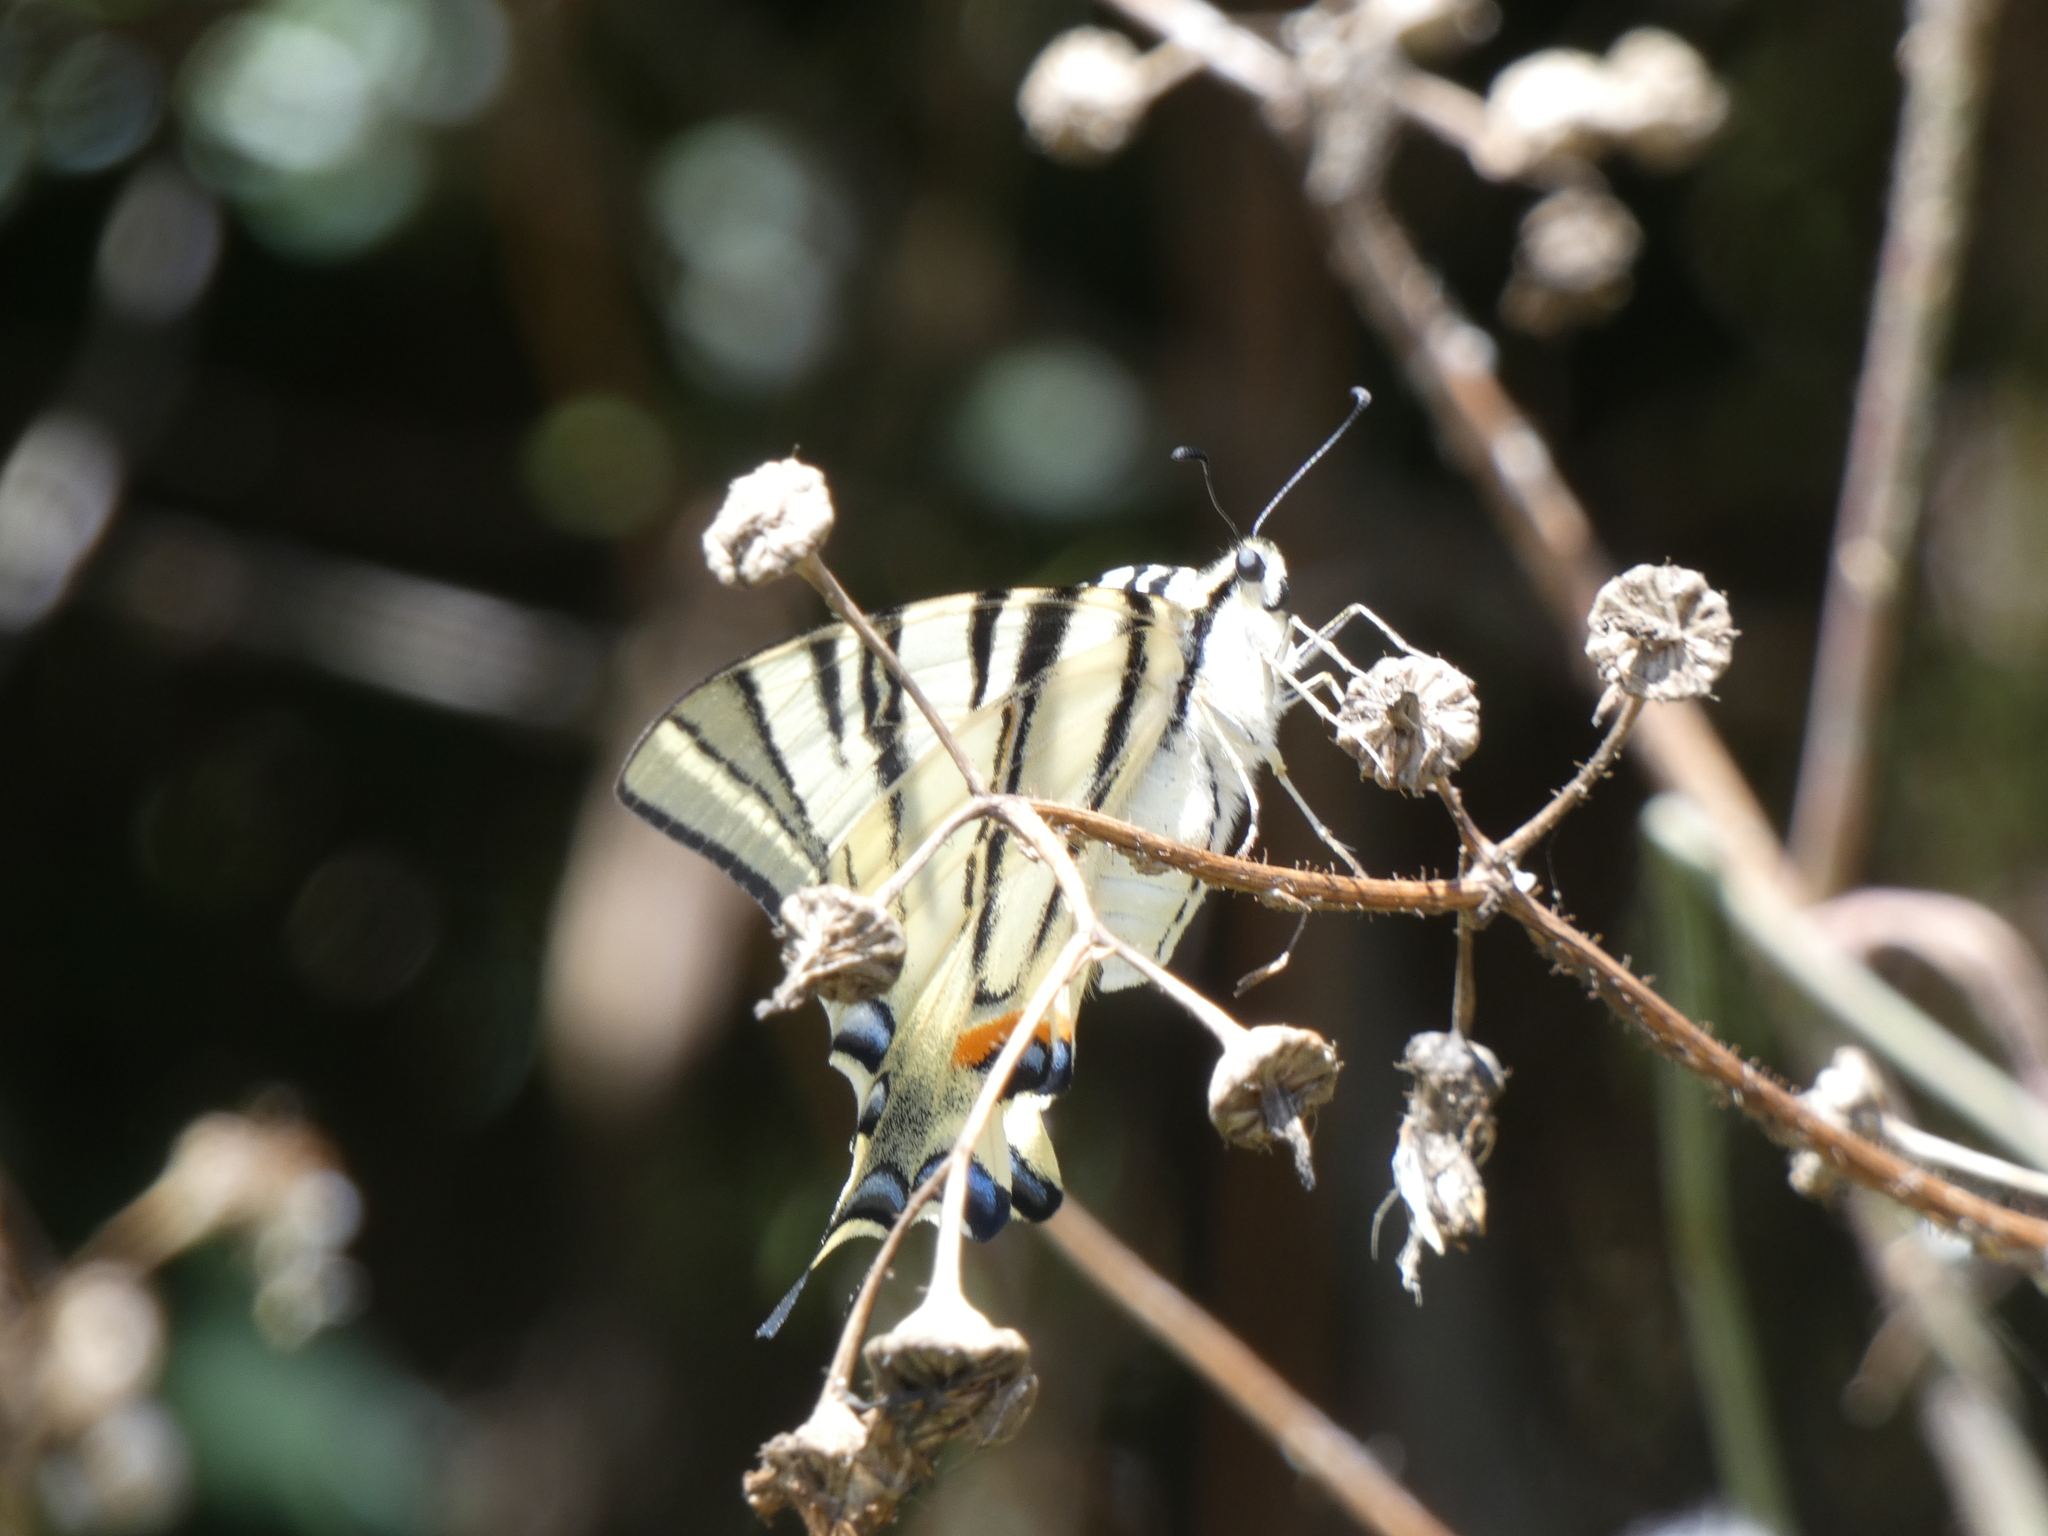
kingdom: Animalia
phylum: Arthropoda
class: Insecta
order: Lepidoptera
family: Papilionidae
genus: Iphiclides
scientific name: Iphiclides podalirius
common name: Scarce swallowtail
